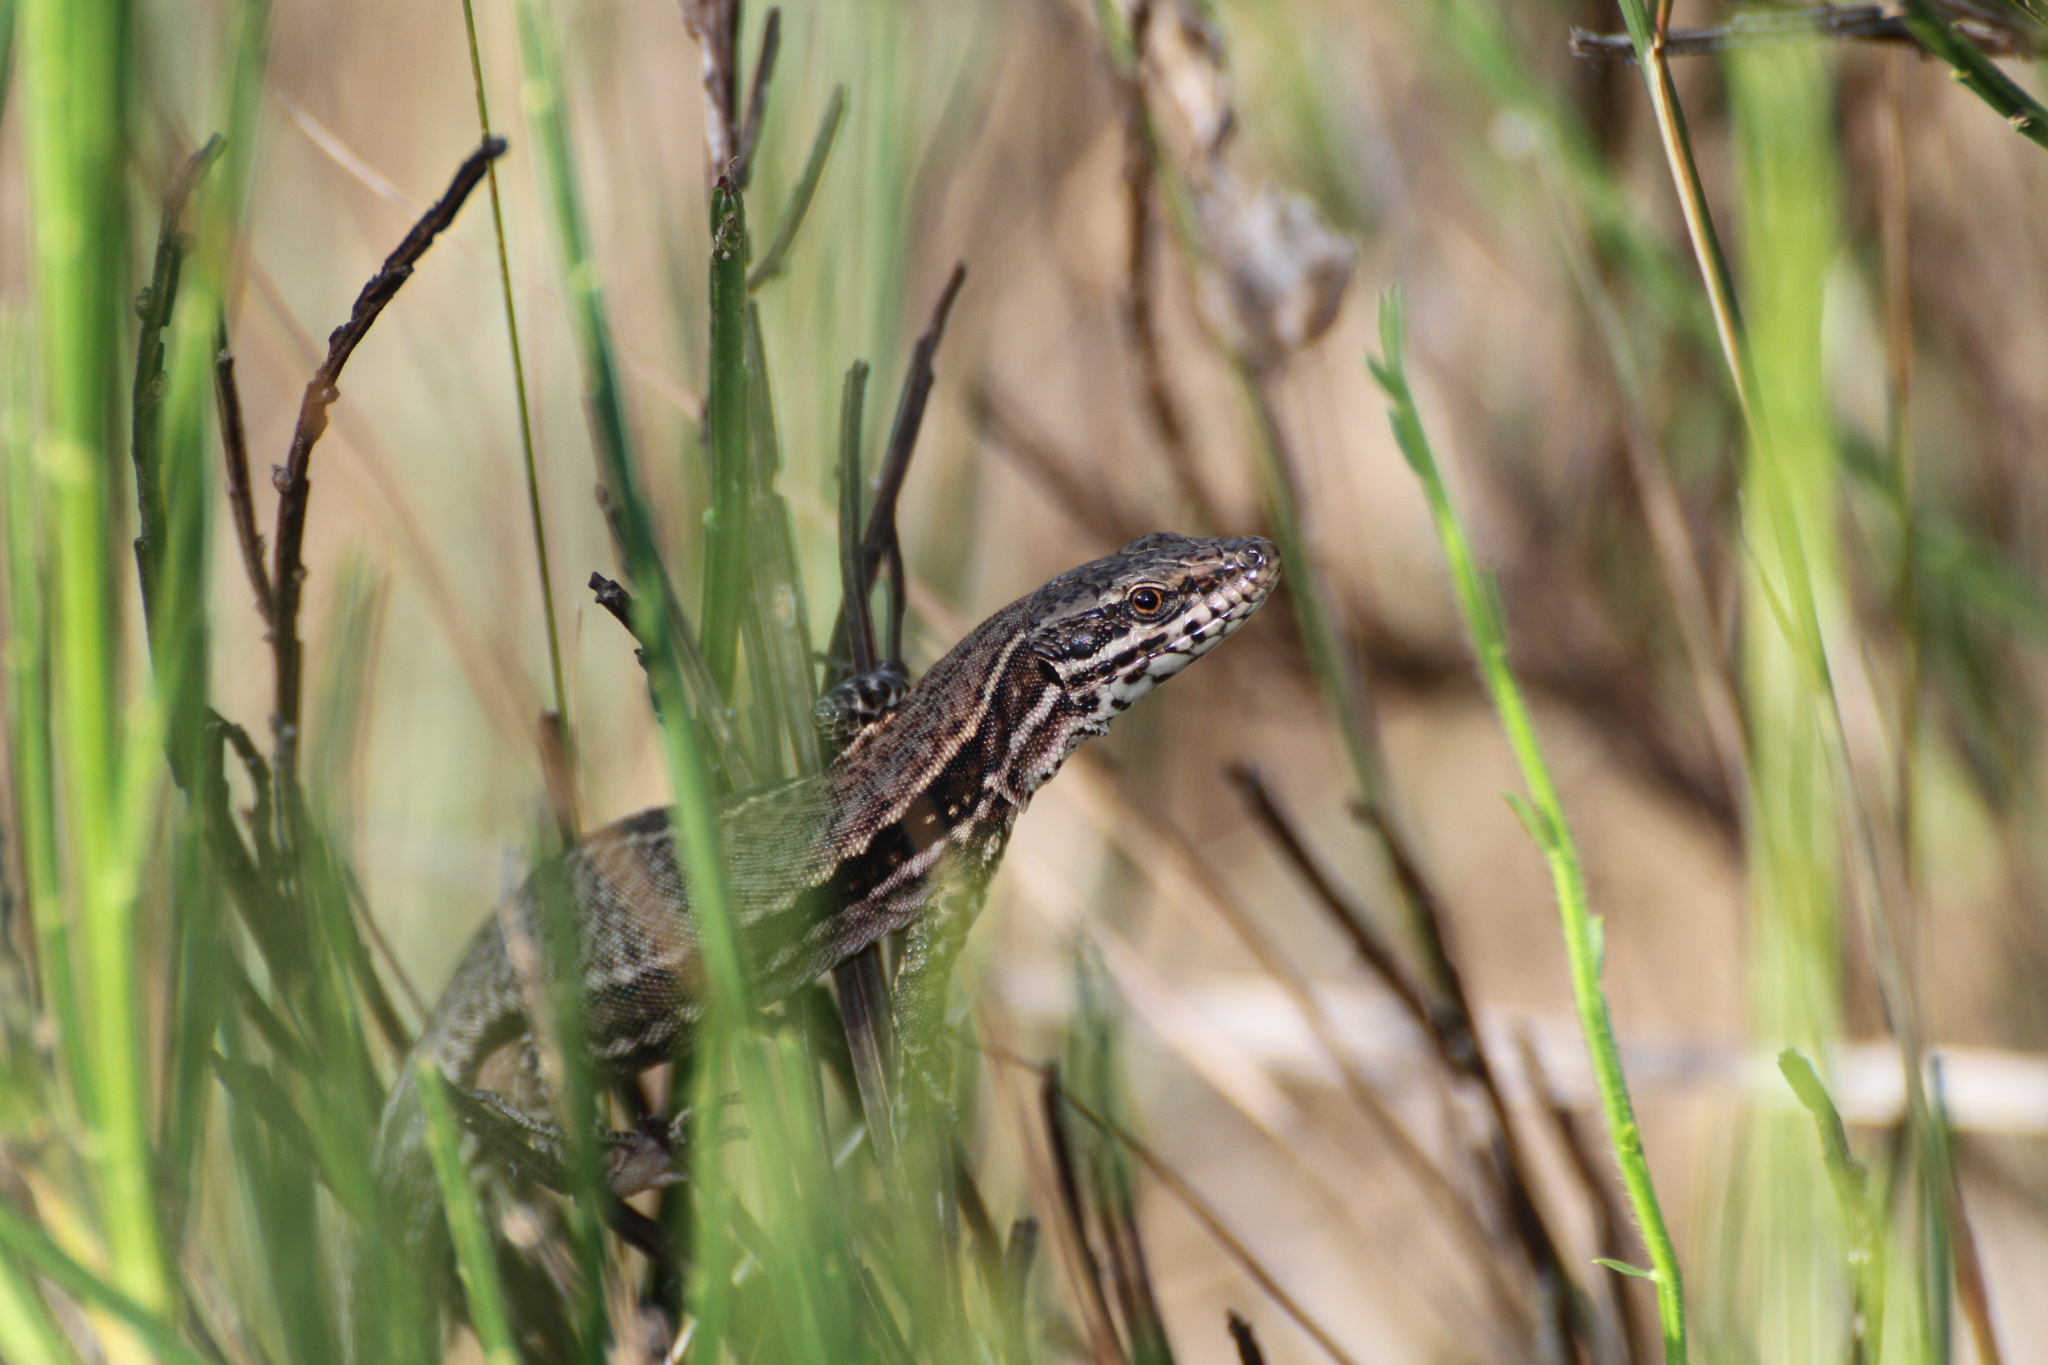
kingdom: Animalia
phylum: Chordata
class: Squamata
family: Lacertidae
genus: Podarcis
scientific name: Podarcis muralis
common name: Common wall lizard
